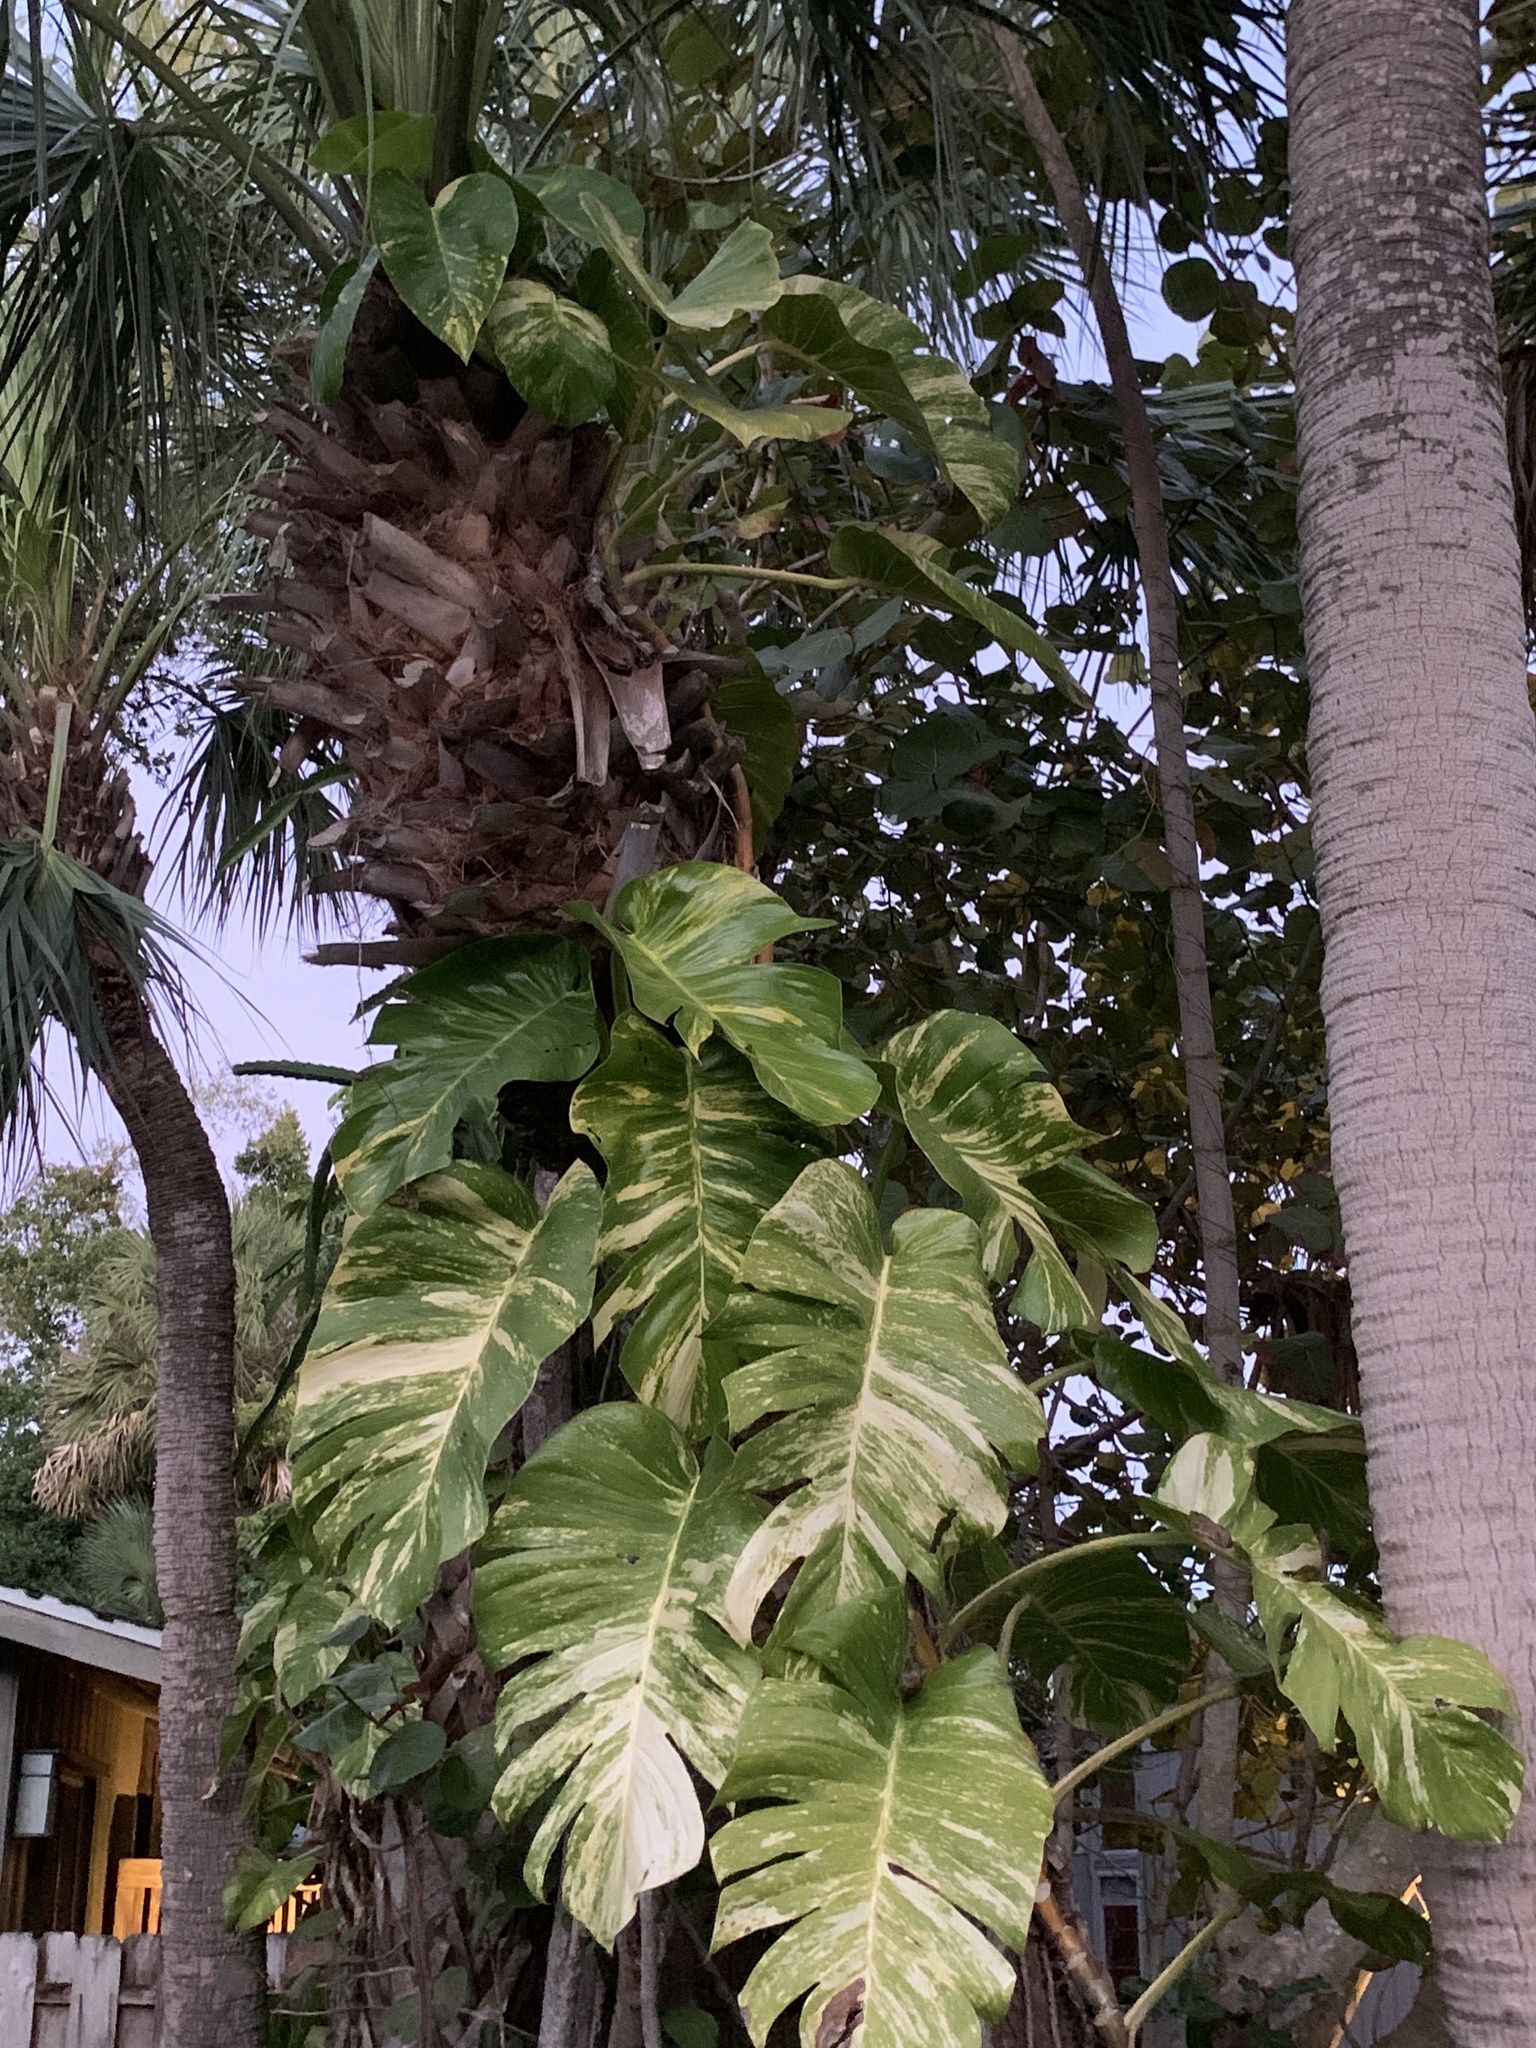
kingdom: Plantae
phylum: Tracheophyta
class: Liliopsida
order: Alismatales
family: Araceae
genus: Epipremnum
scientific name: Epipremnum aureum
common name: Golden hunter's-robe
